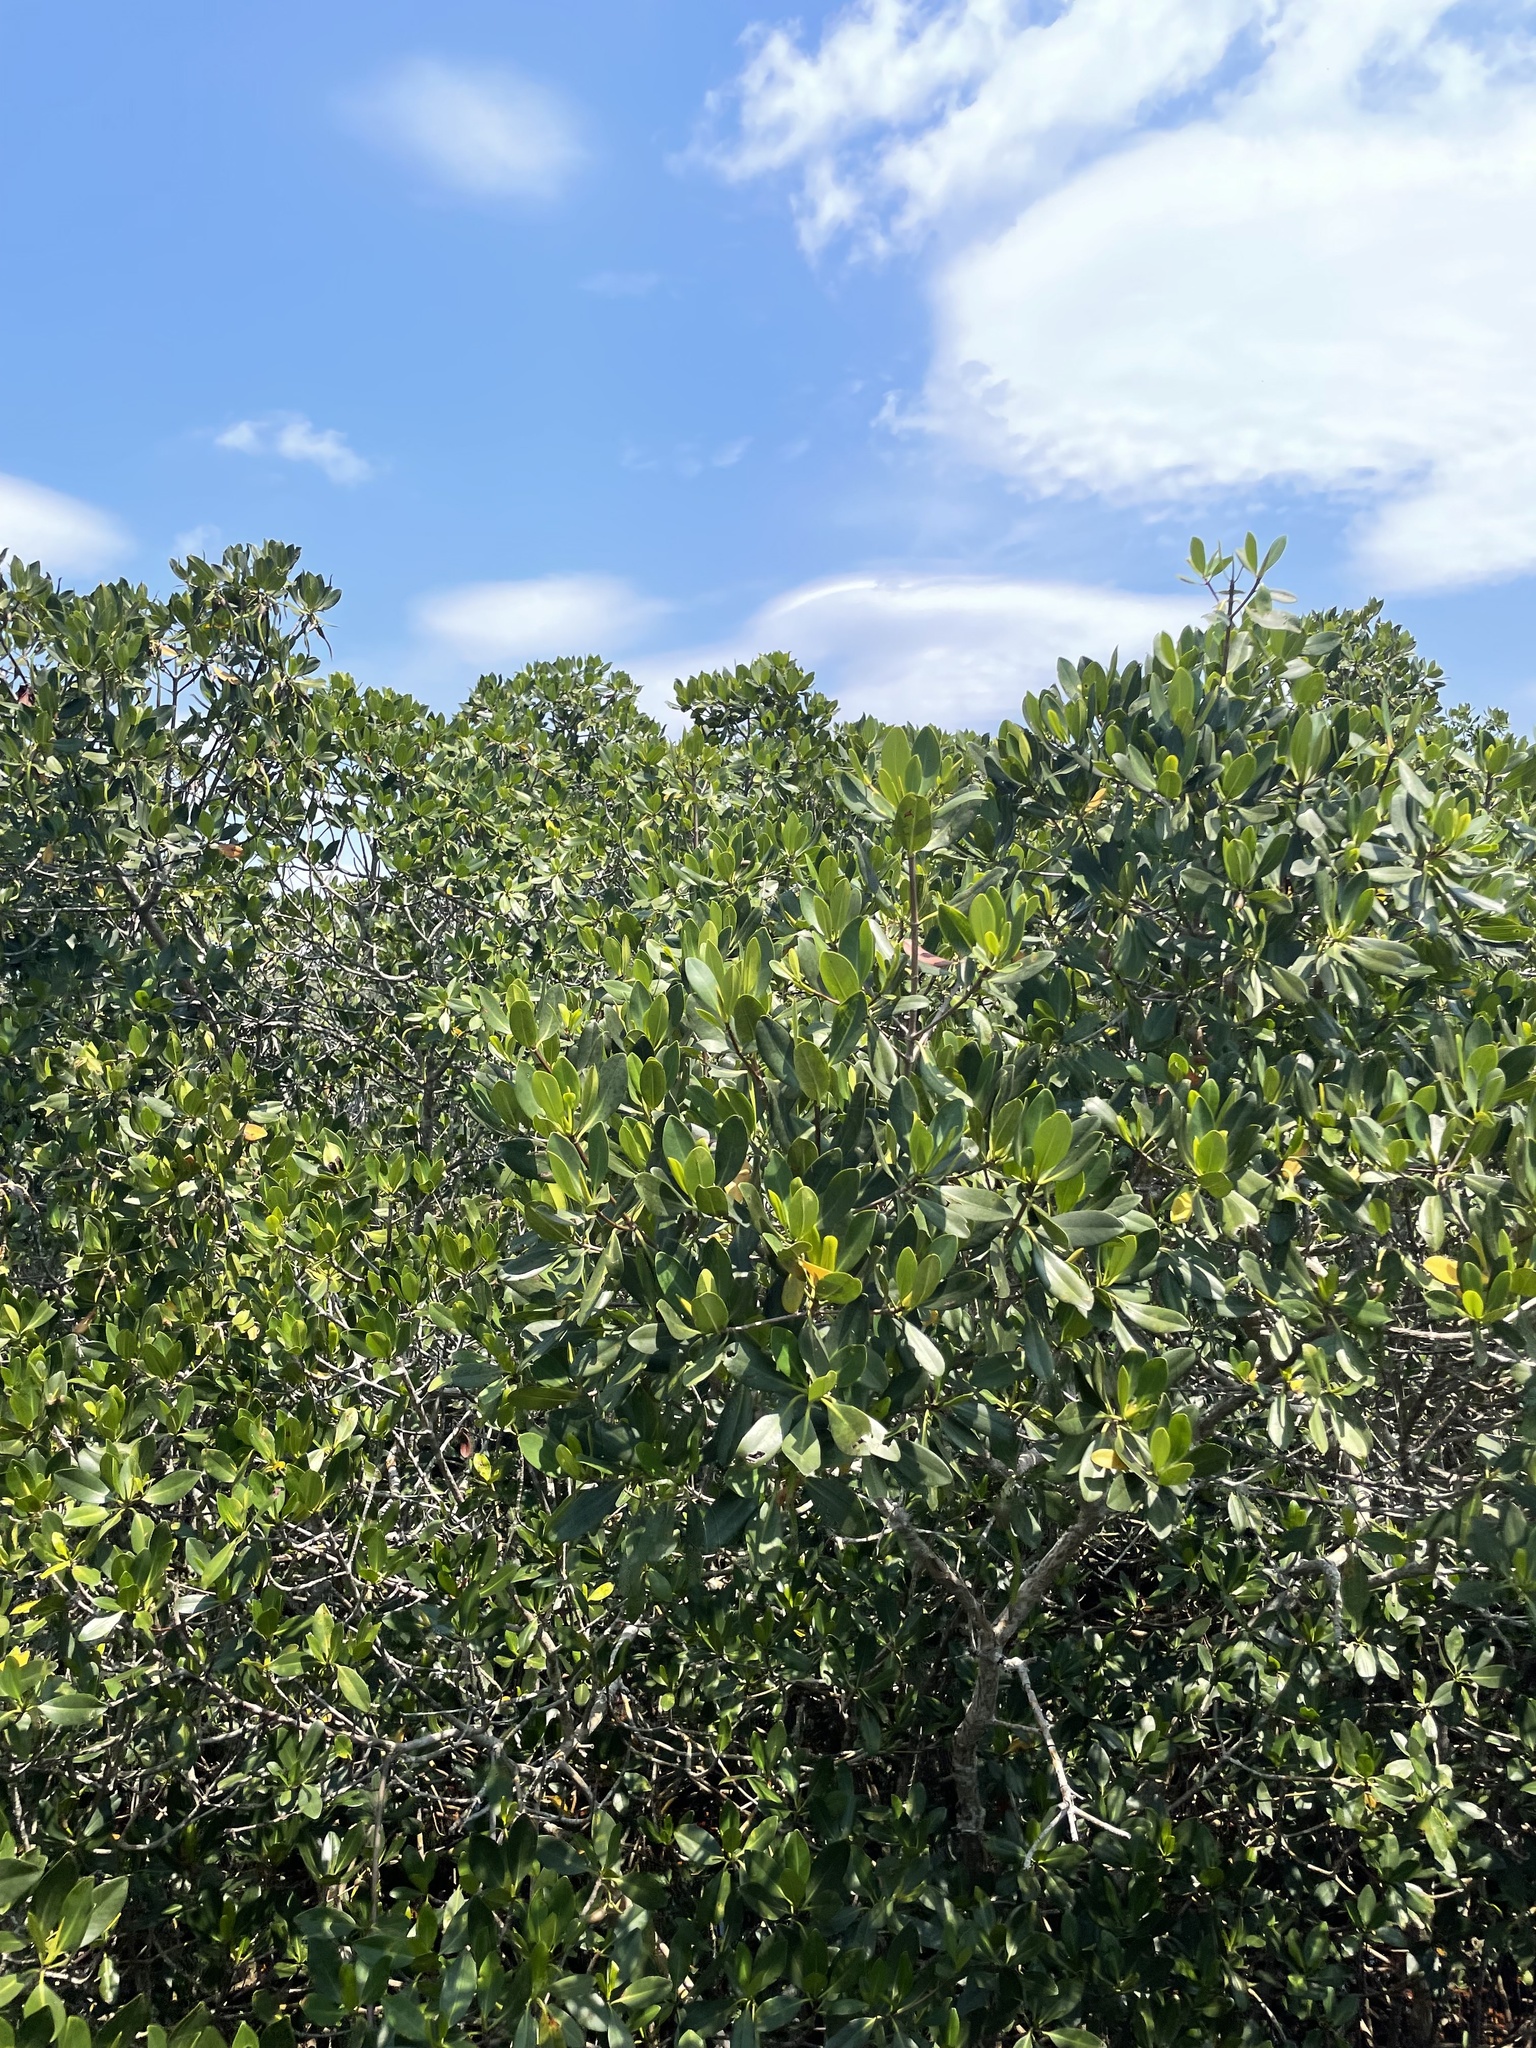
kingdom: Plantae
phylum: Tracheophyta
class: Magnoliopsida
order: Malpighiales
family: Rhizophoraceae
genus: Rhizophora
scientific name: Rhizophora mangle
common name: Red mangrove
